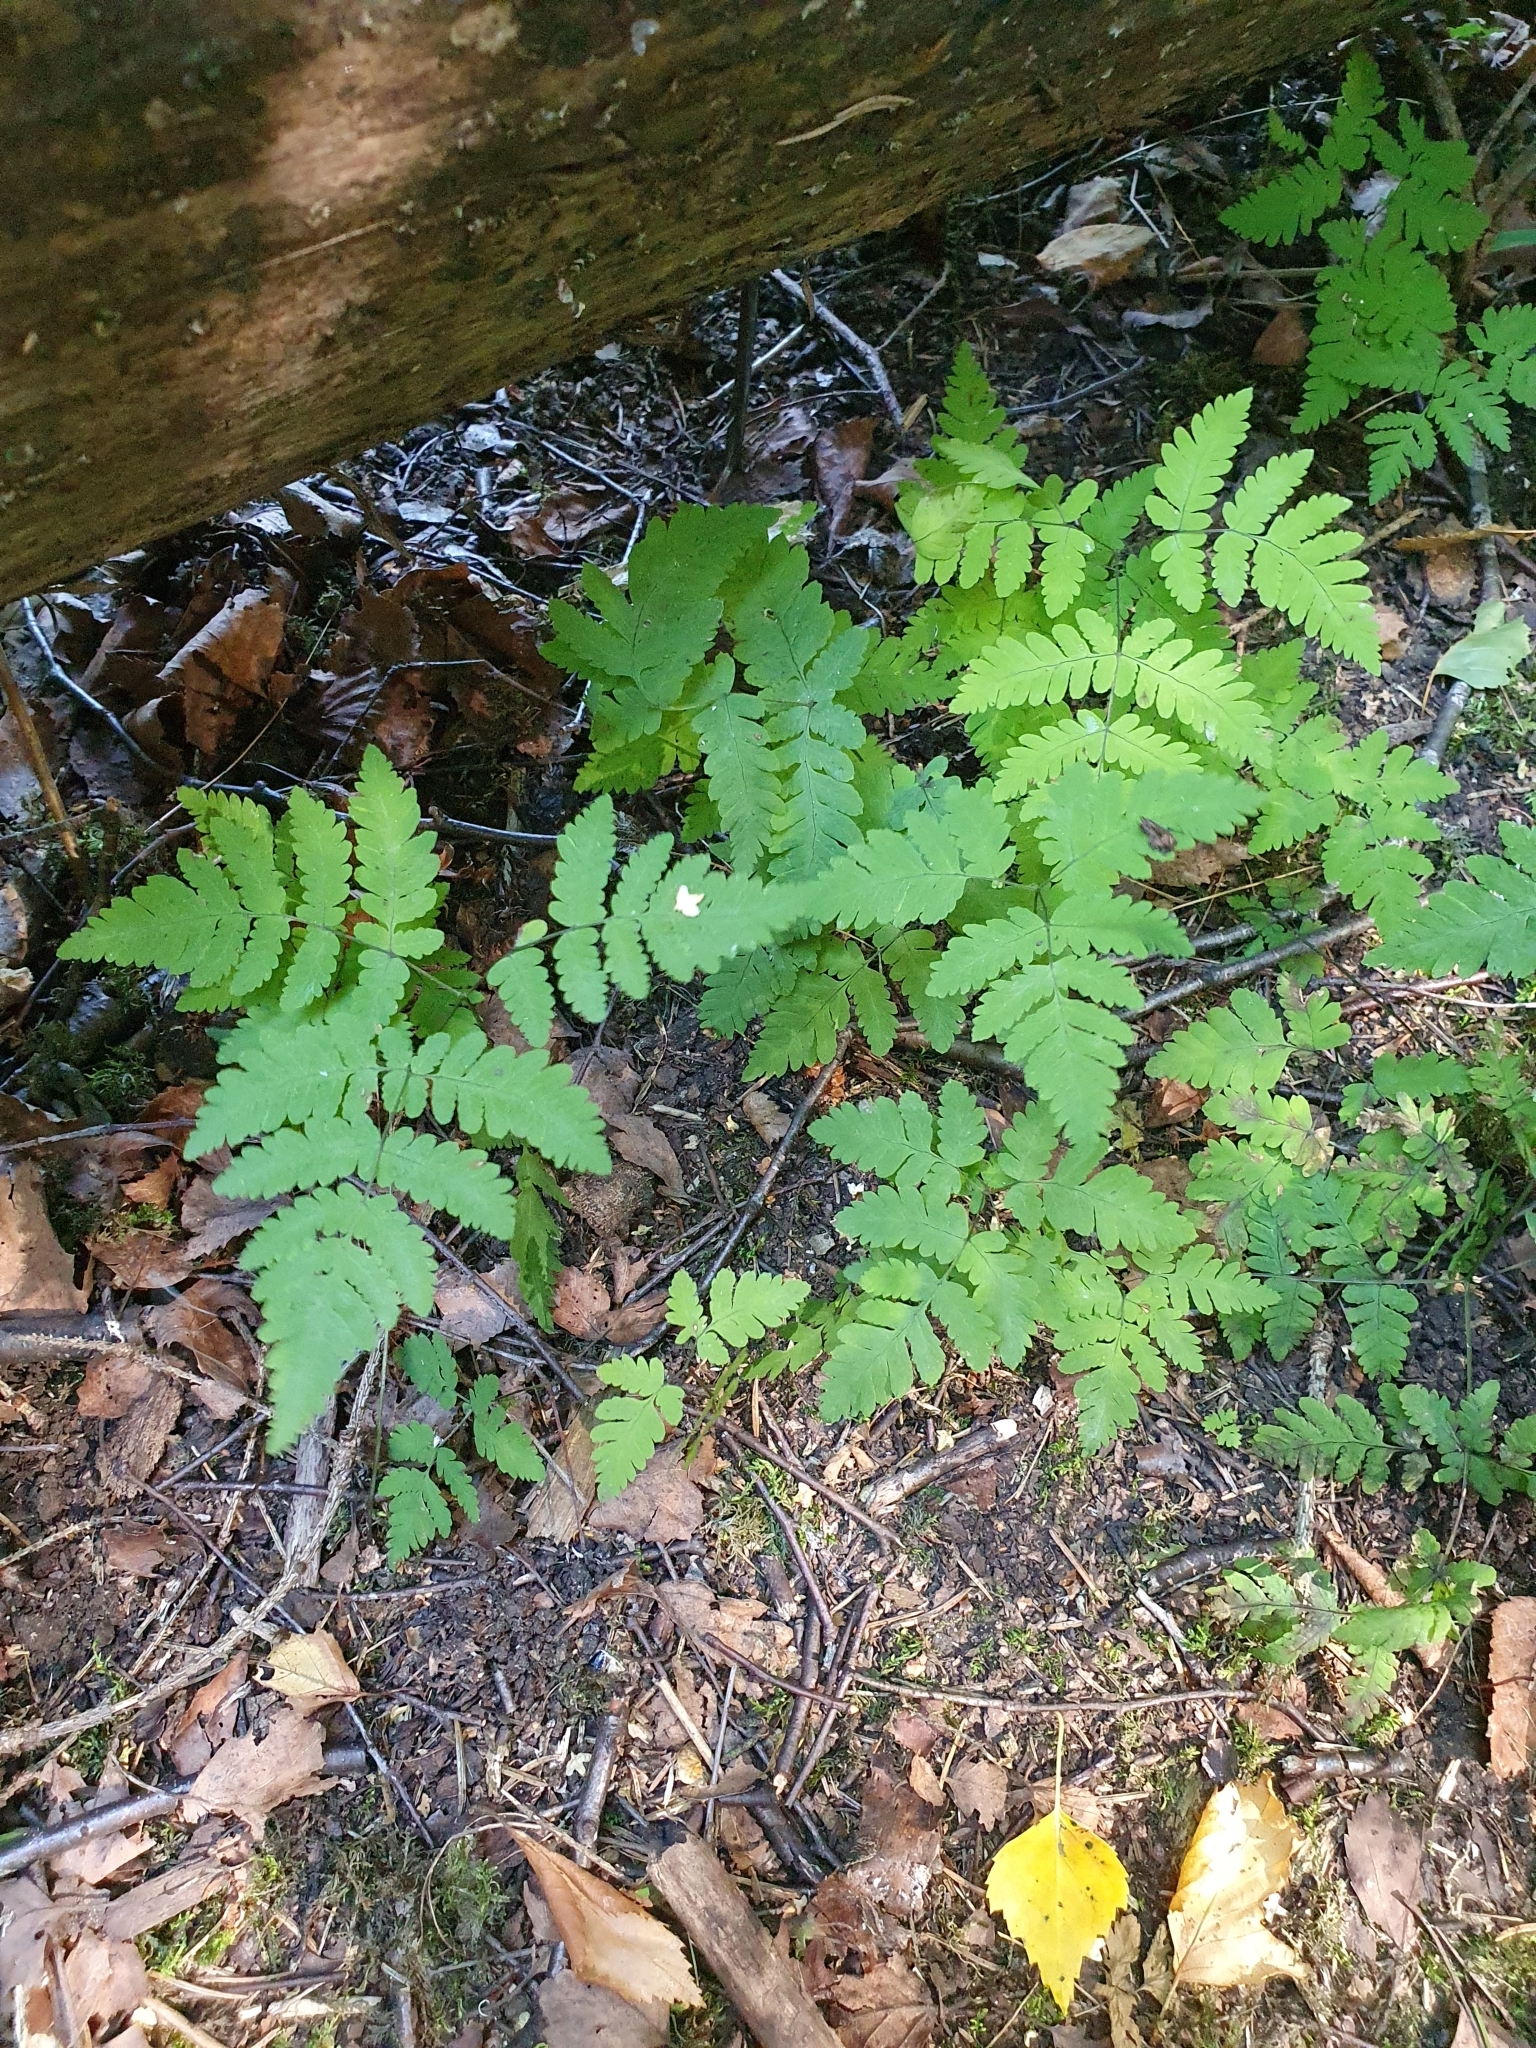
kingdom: Plantae
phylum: Tracheophyta
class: Polypodiopsida
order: Polypodiales
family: Cystopteridaceae
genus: Gymnocarpium
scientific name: Gymnocarpium dryopteris
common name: Oak fern
